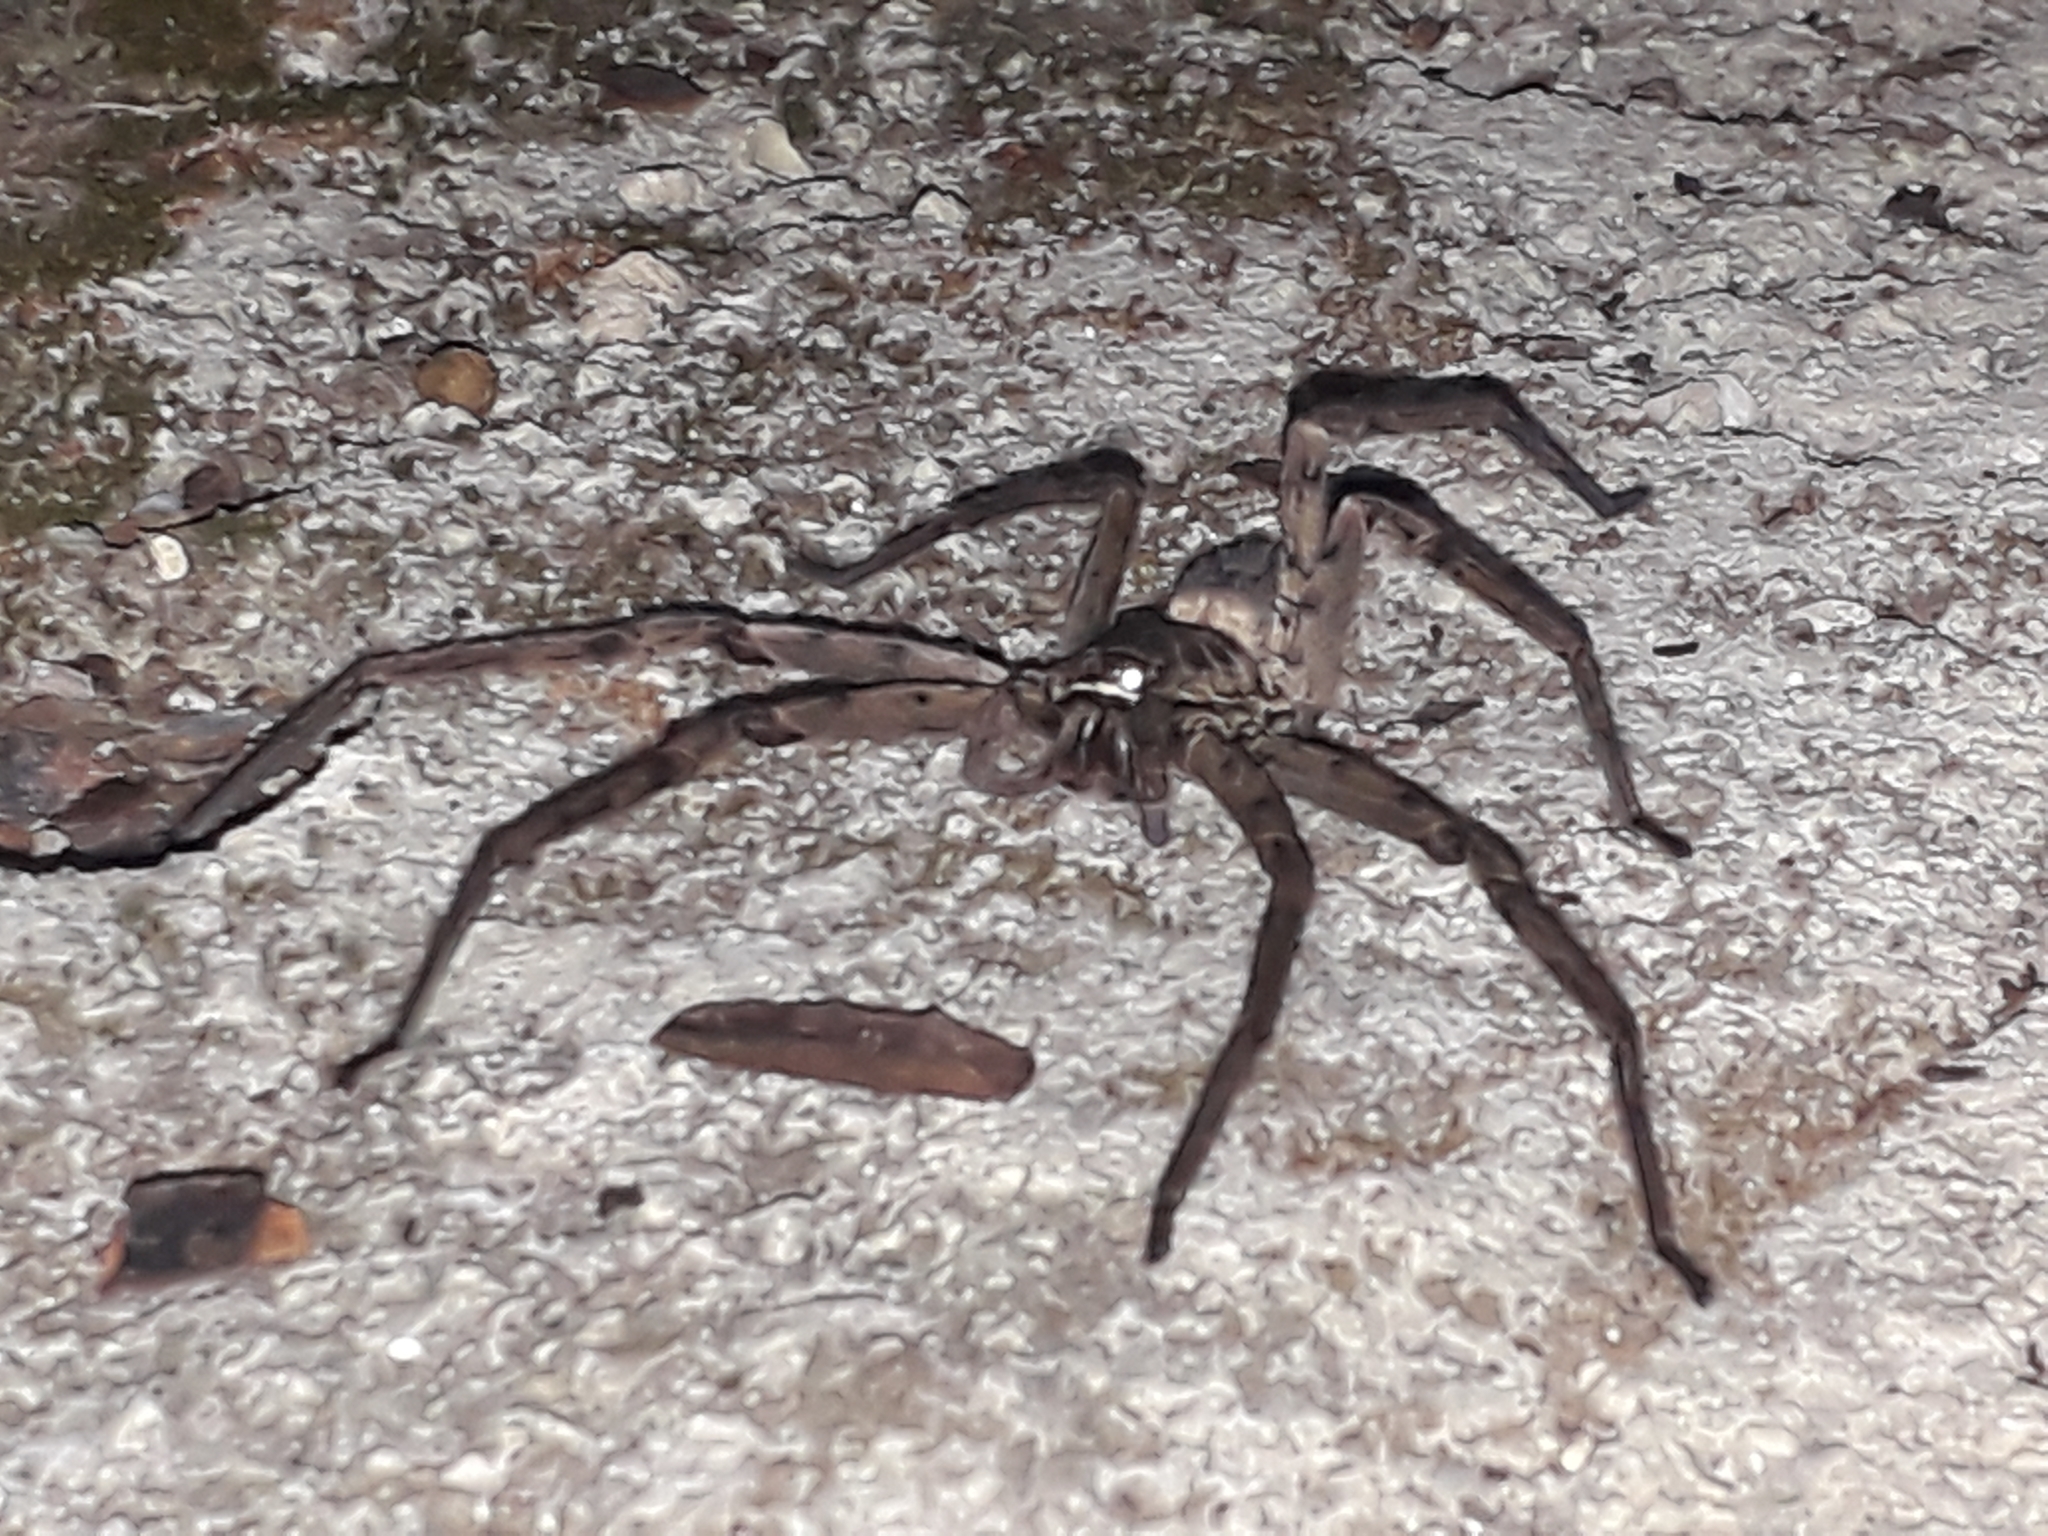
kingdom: Animalia
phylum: Arthropoda
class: Arachnida
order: Araneae
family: Sparassidae
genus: Heteropoda
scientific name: Heteropoda venatoria
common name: Huntsman spider
